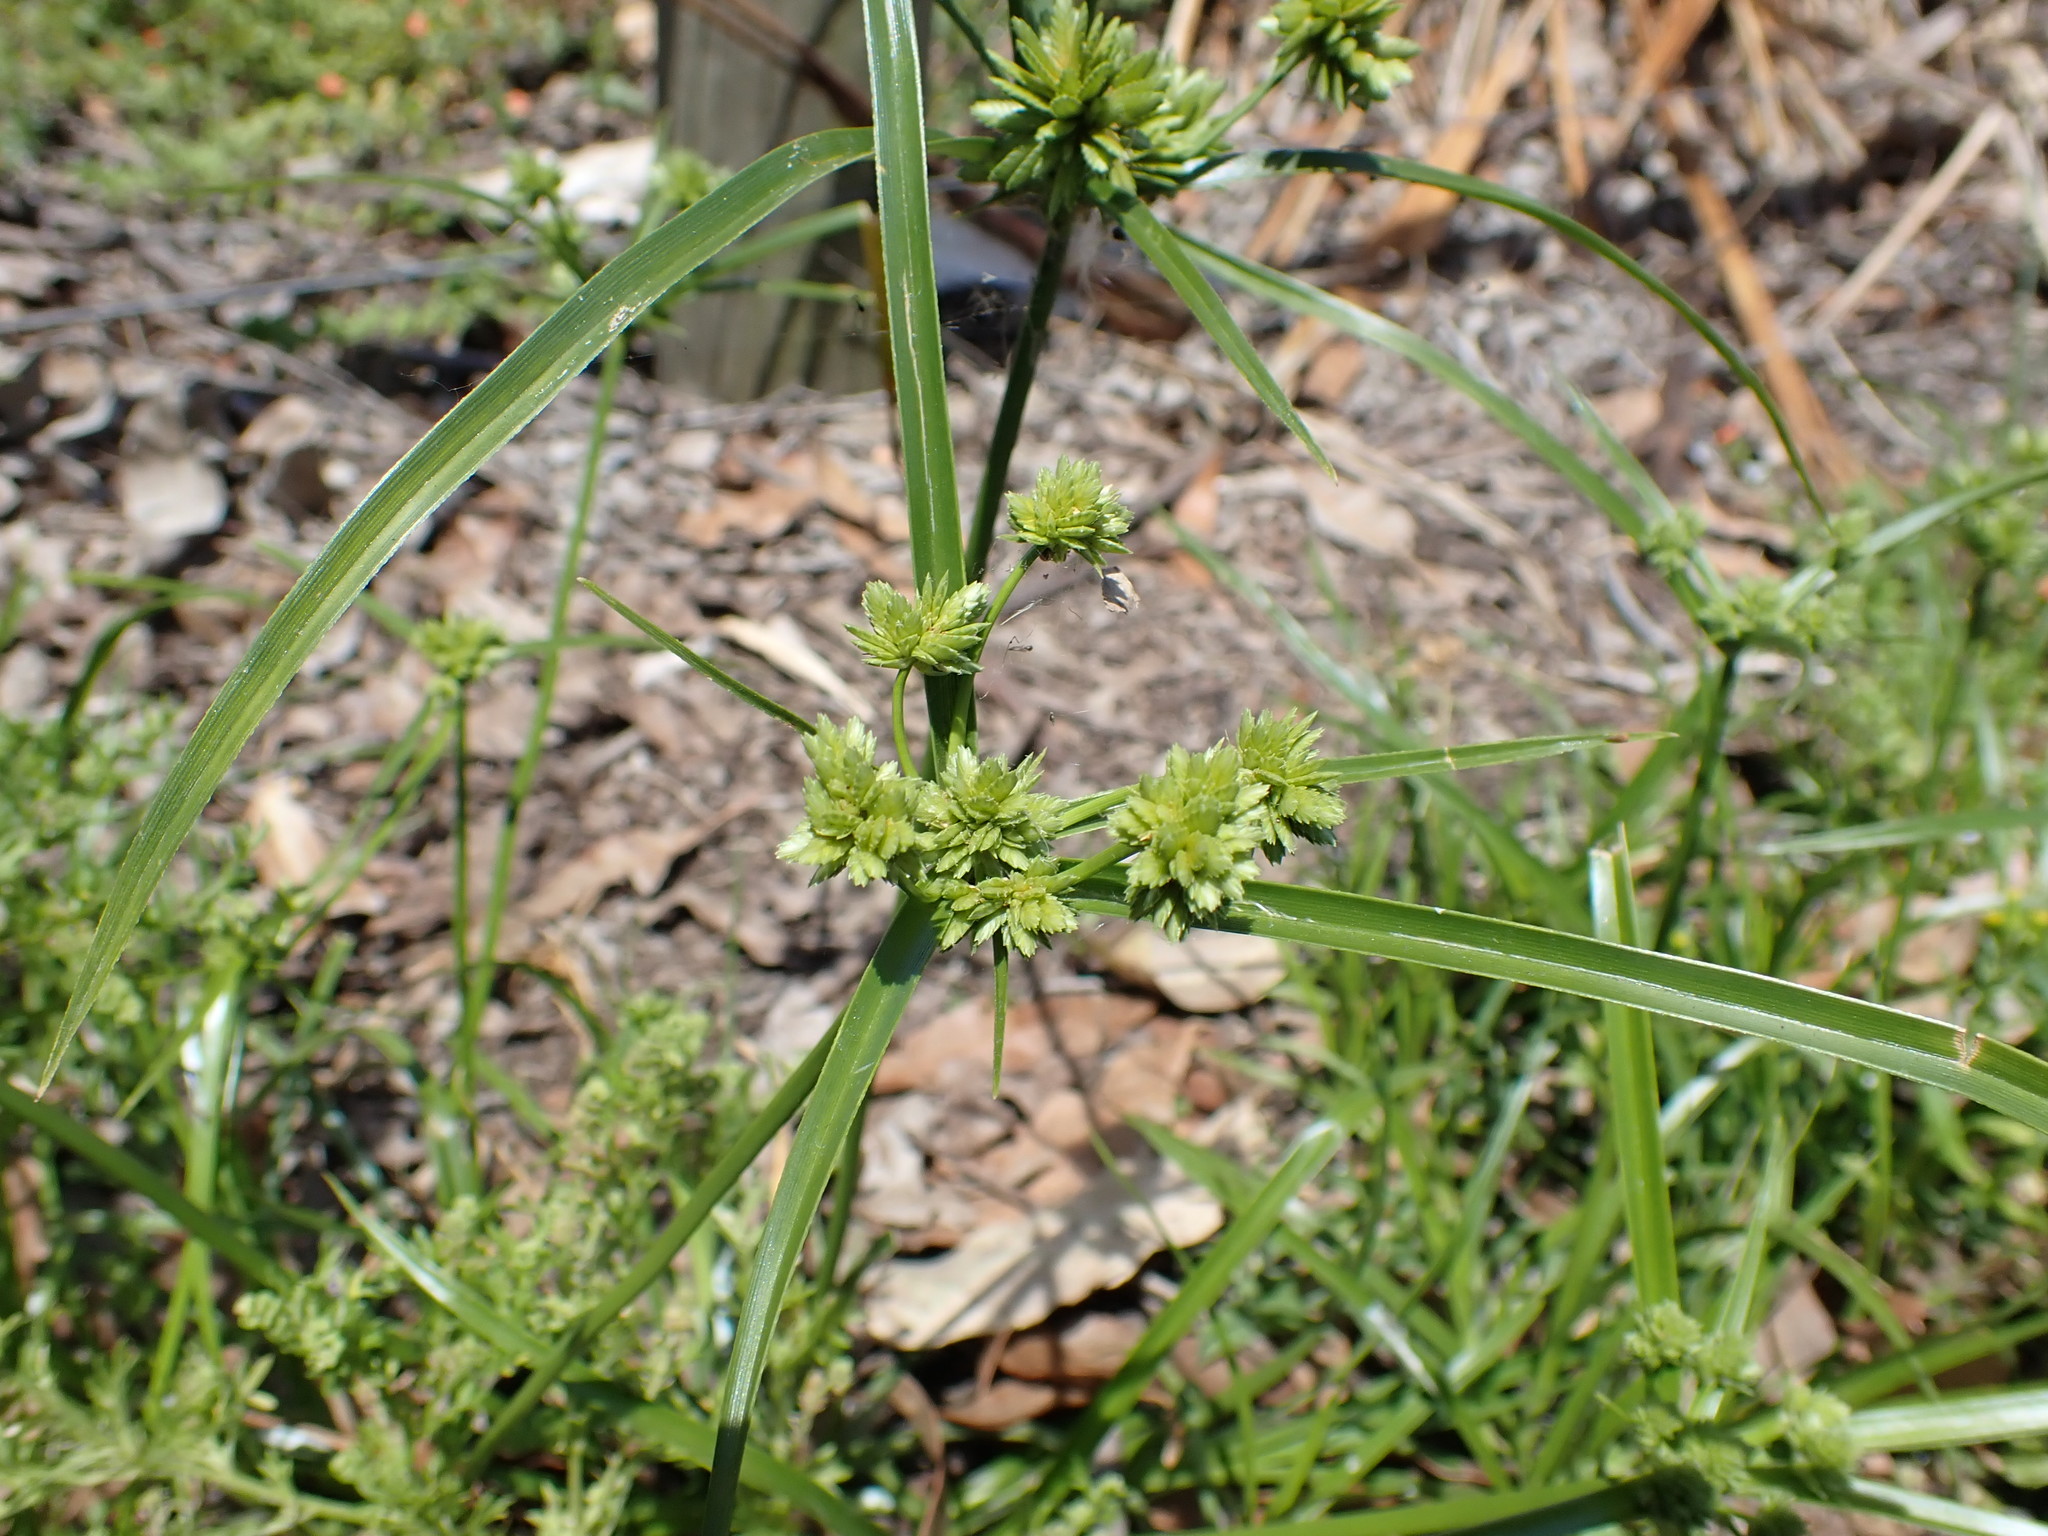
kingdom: Plantae
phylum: Tracheophyta
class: Liliopsida
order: Poales
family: Cyperaceae
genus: Cyperus
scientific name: Cyperus eragrostis
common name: Tall flatsedge
